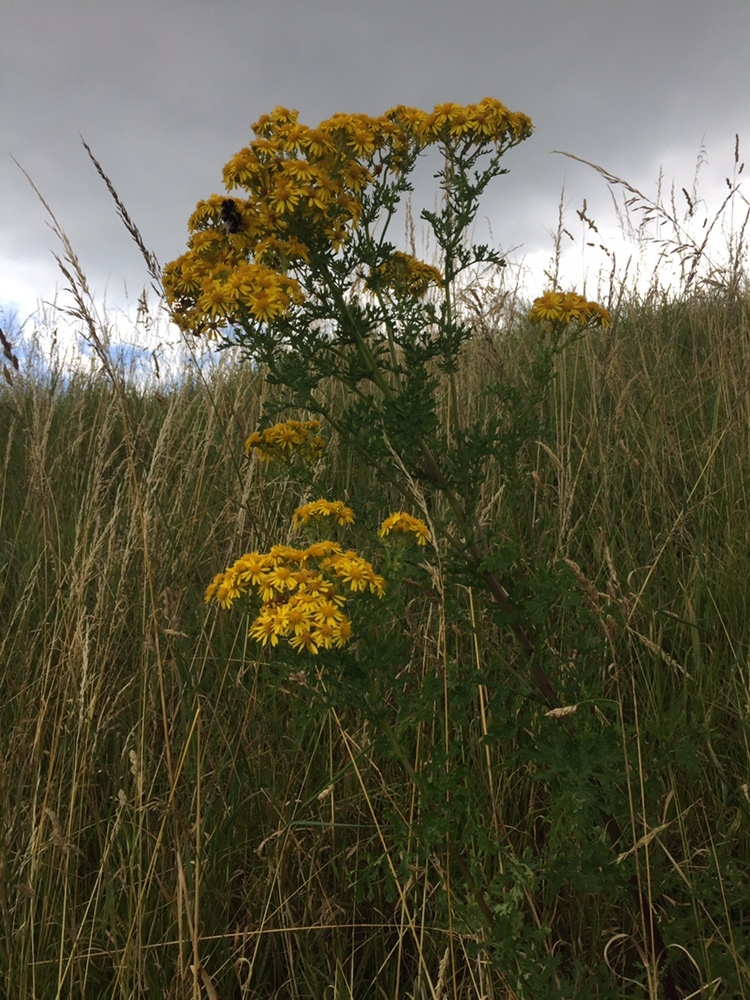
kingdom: Plantae
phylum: Tracheophyta
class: Magnoliopsida
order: Asterales
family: Asteraceae
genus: Jacobaea
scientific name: Jacobaea vulgaris
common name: Stinking willie
